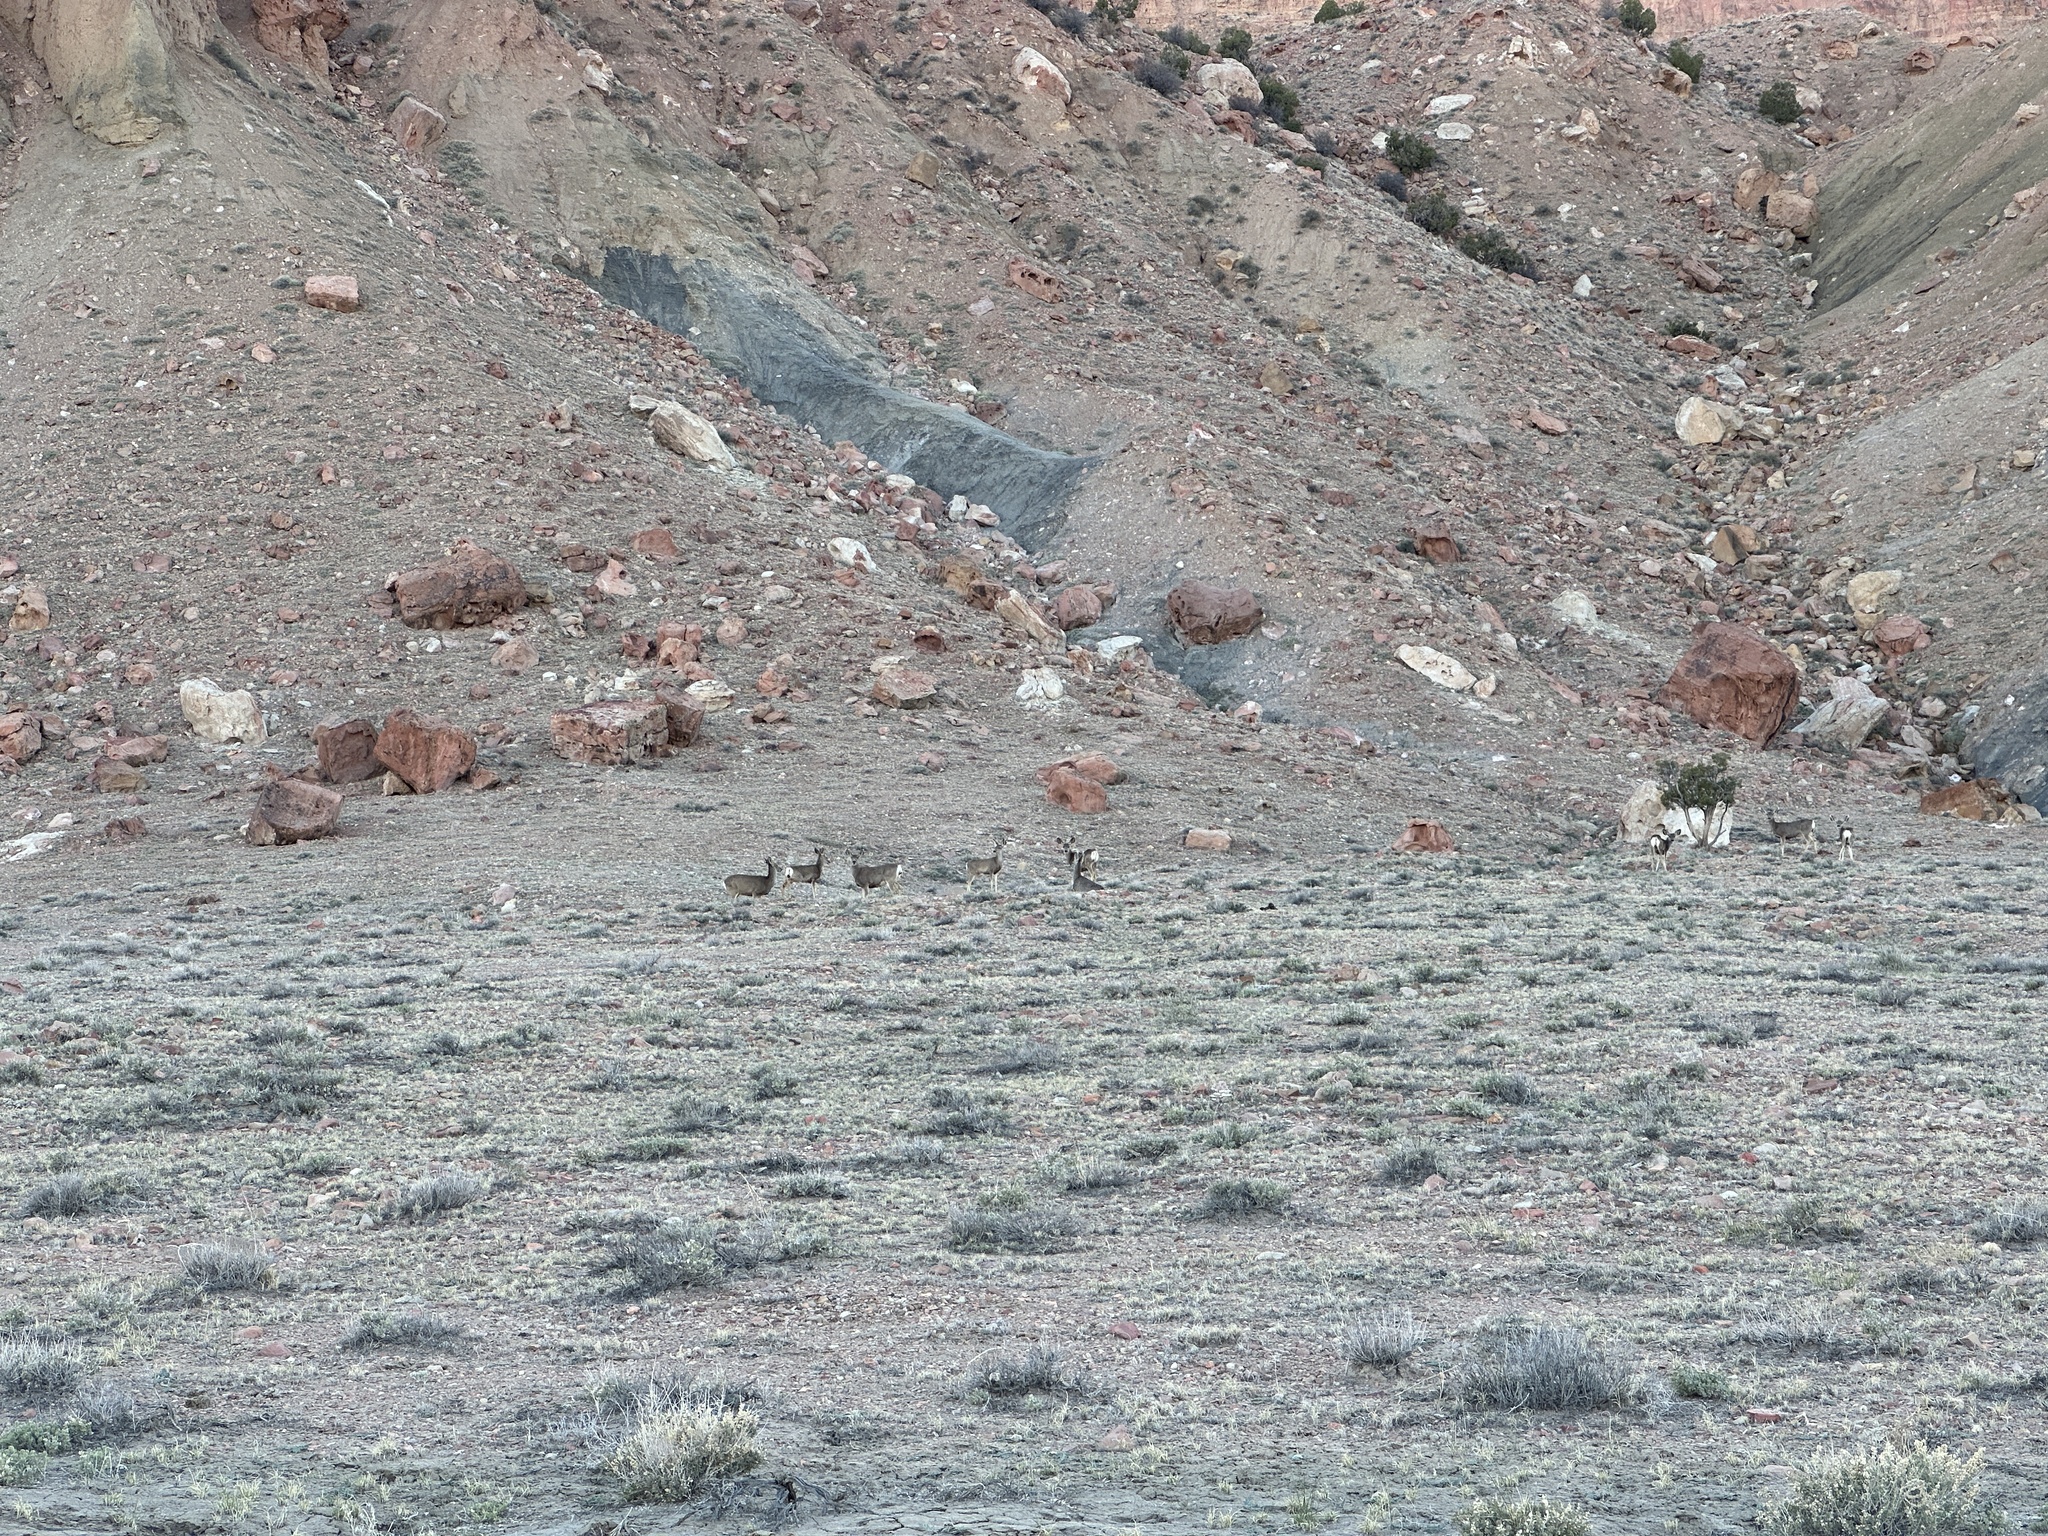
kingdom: Animalia
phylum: Chordata
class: Mammalia
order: Artiodactyla
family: Cervidae
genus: Odocoileus
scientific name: Odocoileus hemionus
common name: Mule deer
